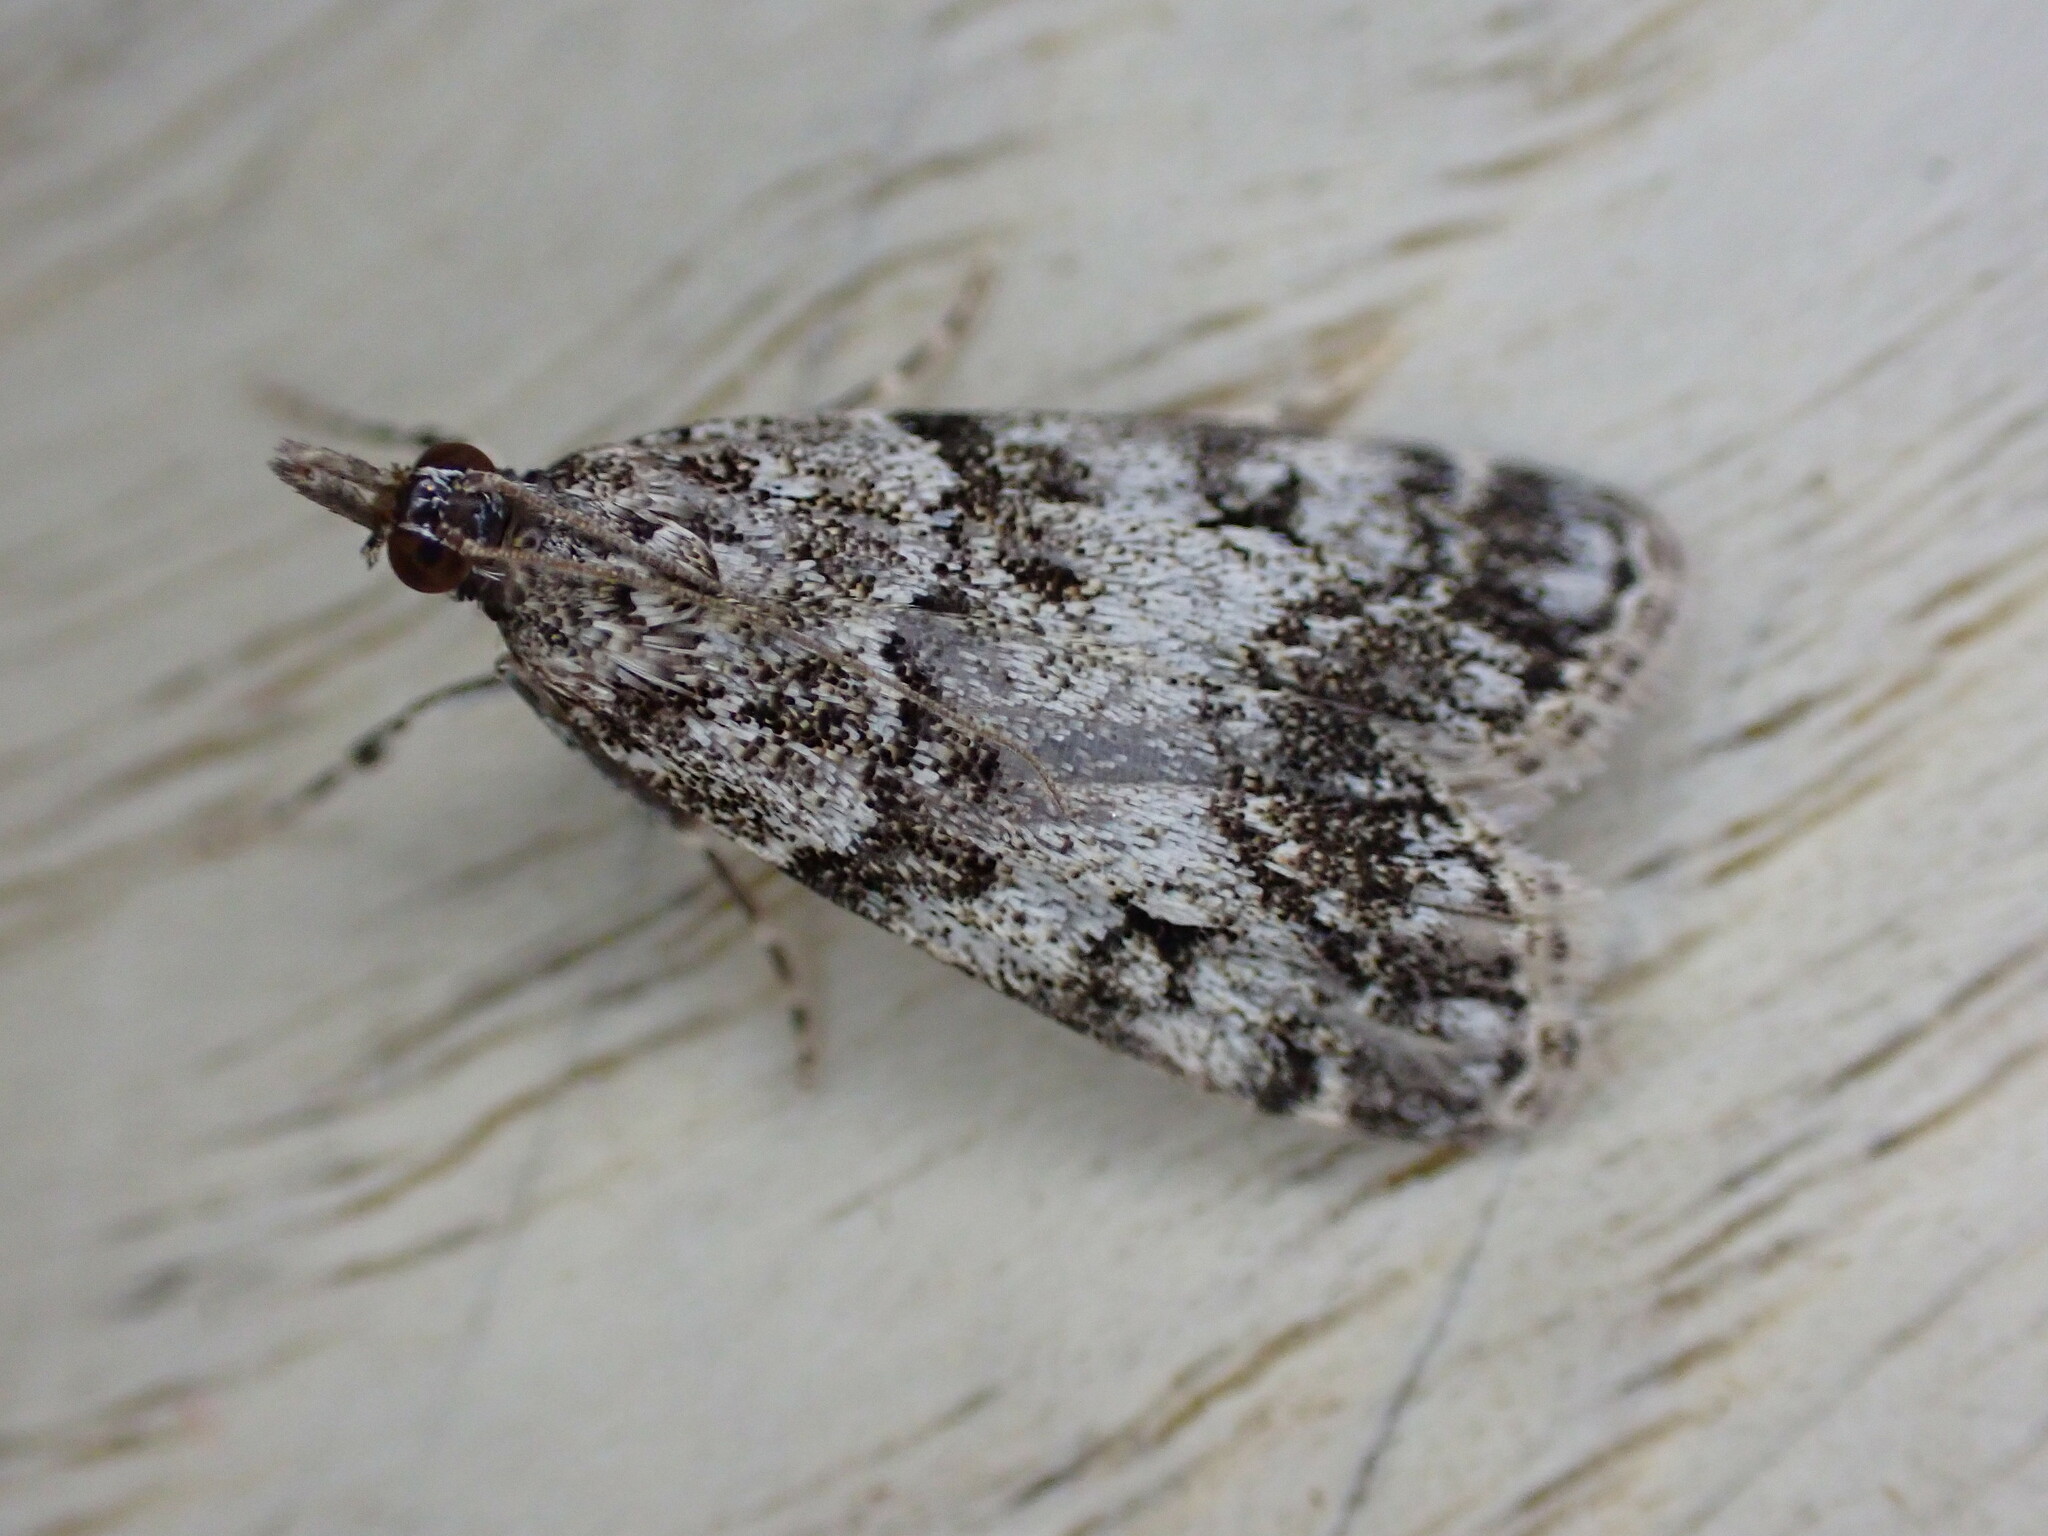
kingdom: Animalia
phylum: Arthropoda
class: Insecta
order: Lepidoptera
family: Crambidae
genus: Eudonia
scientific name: Eudonia lacustrata
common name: Little grey
